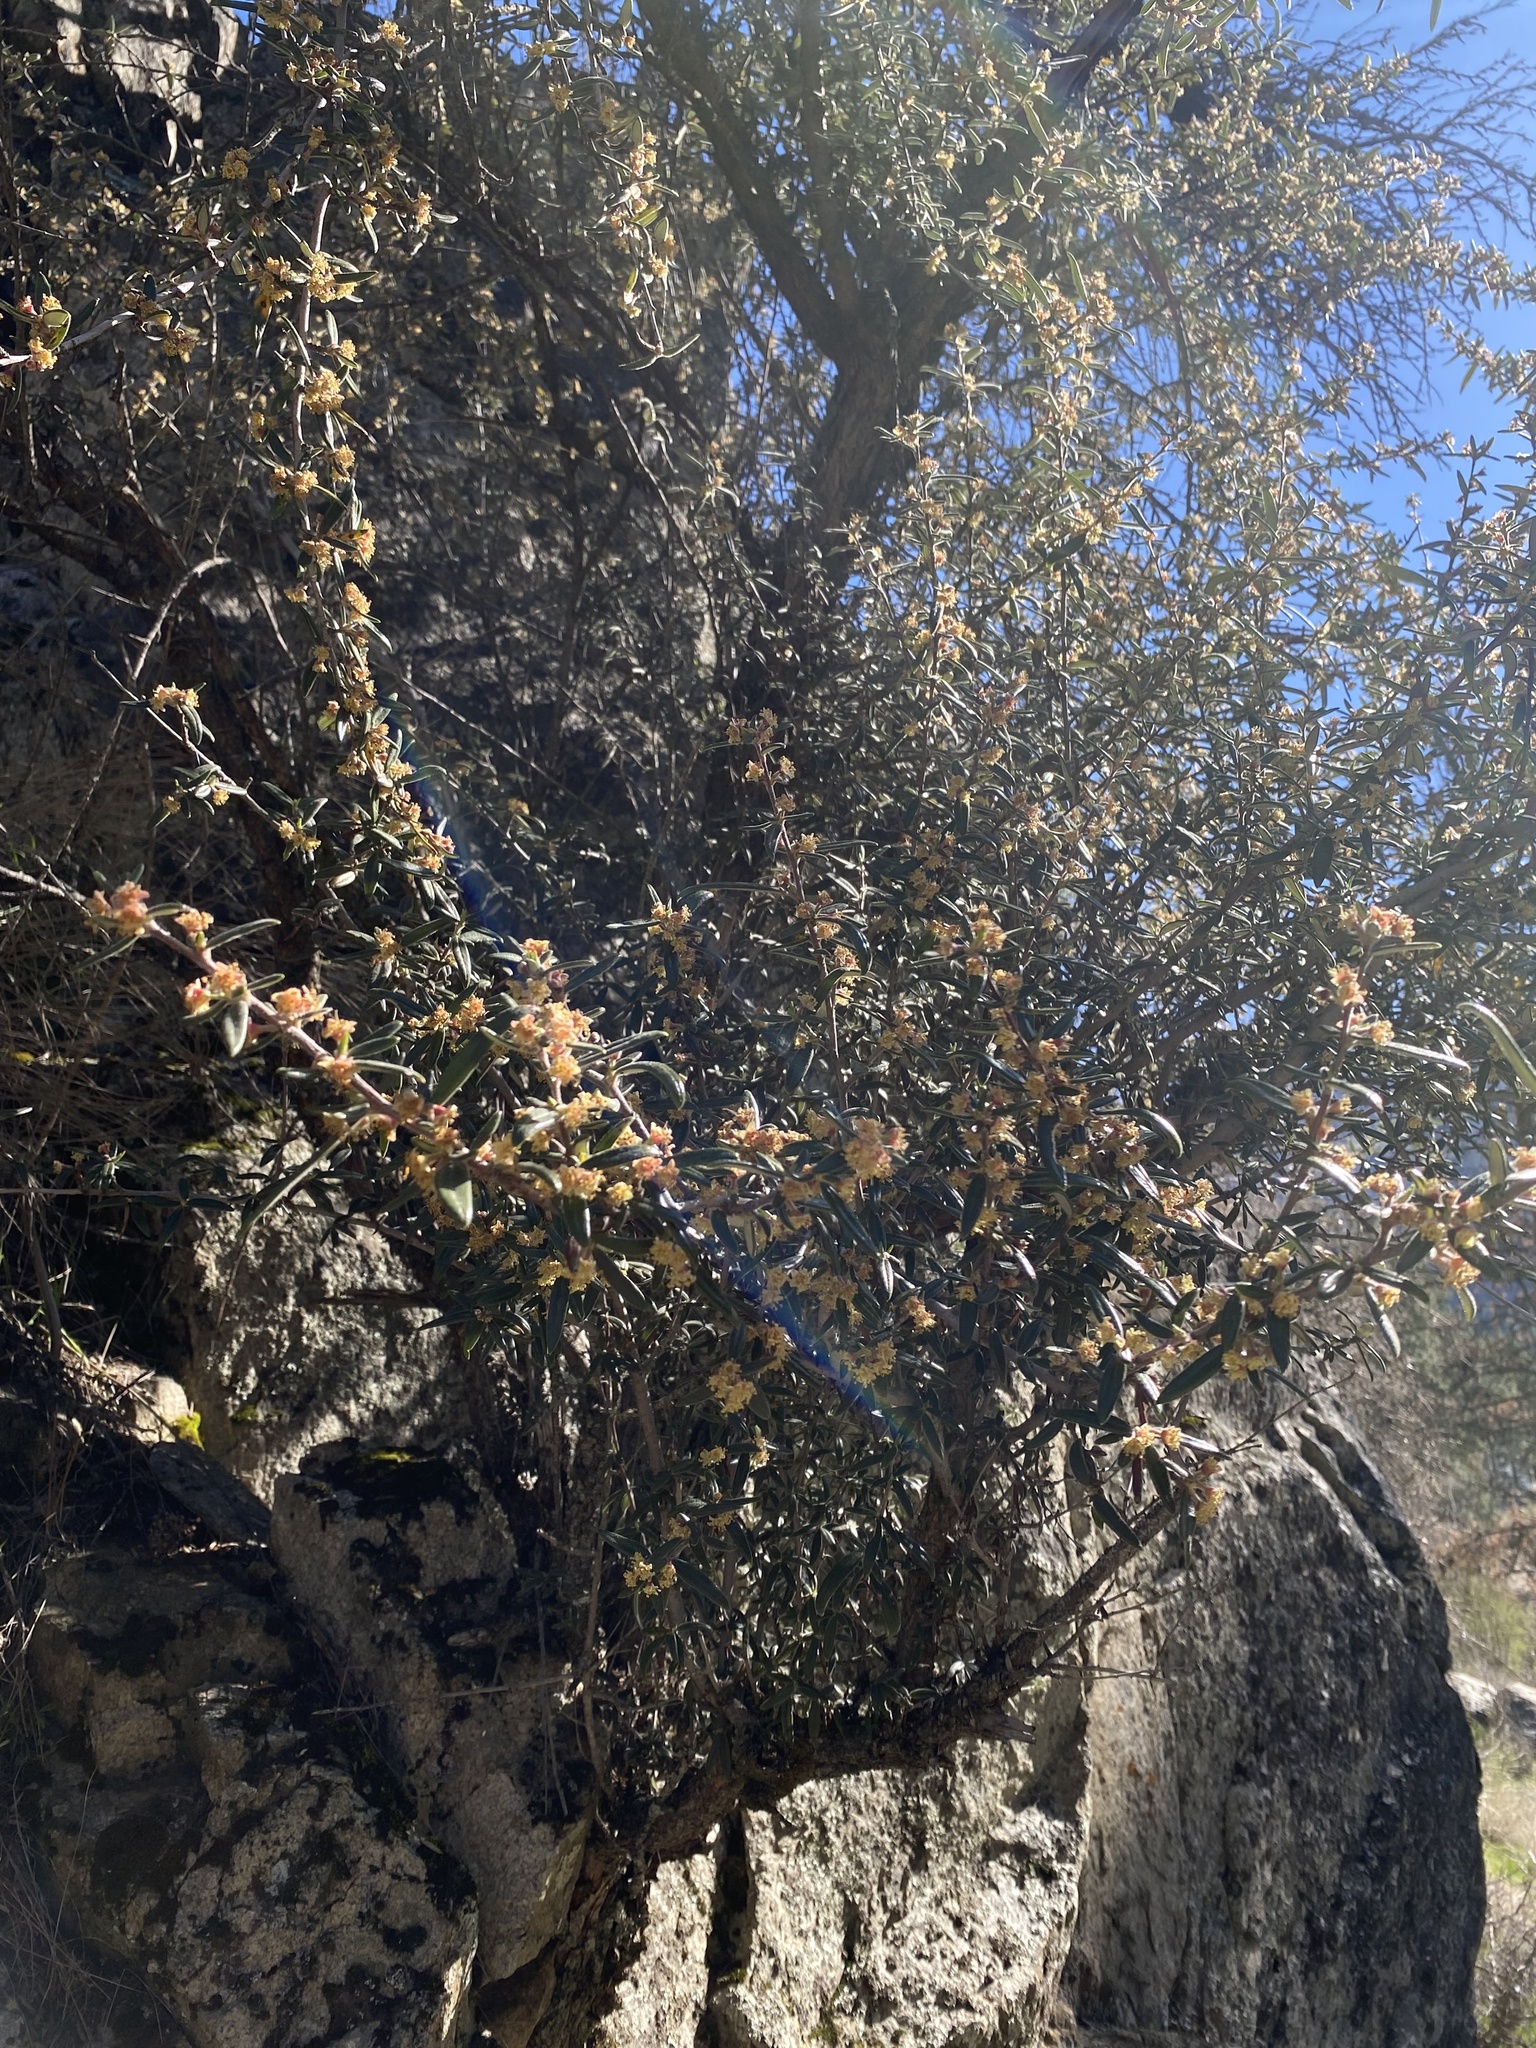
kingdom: Plantae
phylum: Tracheophyta
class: Magnoliopsida
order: Rosales
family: Rosaceae
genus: Cercocarpus
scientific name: Cercocarpus ledifolius
